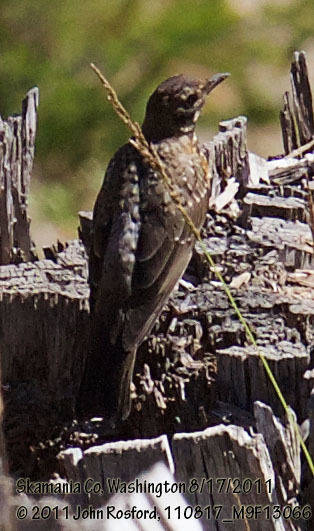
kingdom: Animalia
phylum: Chordata
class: Aves
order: Passeriformes
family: Turdidae
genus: Turdus
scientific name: Turdus migratorius
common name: American robin
